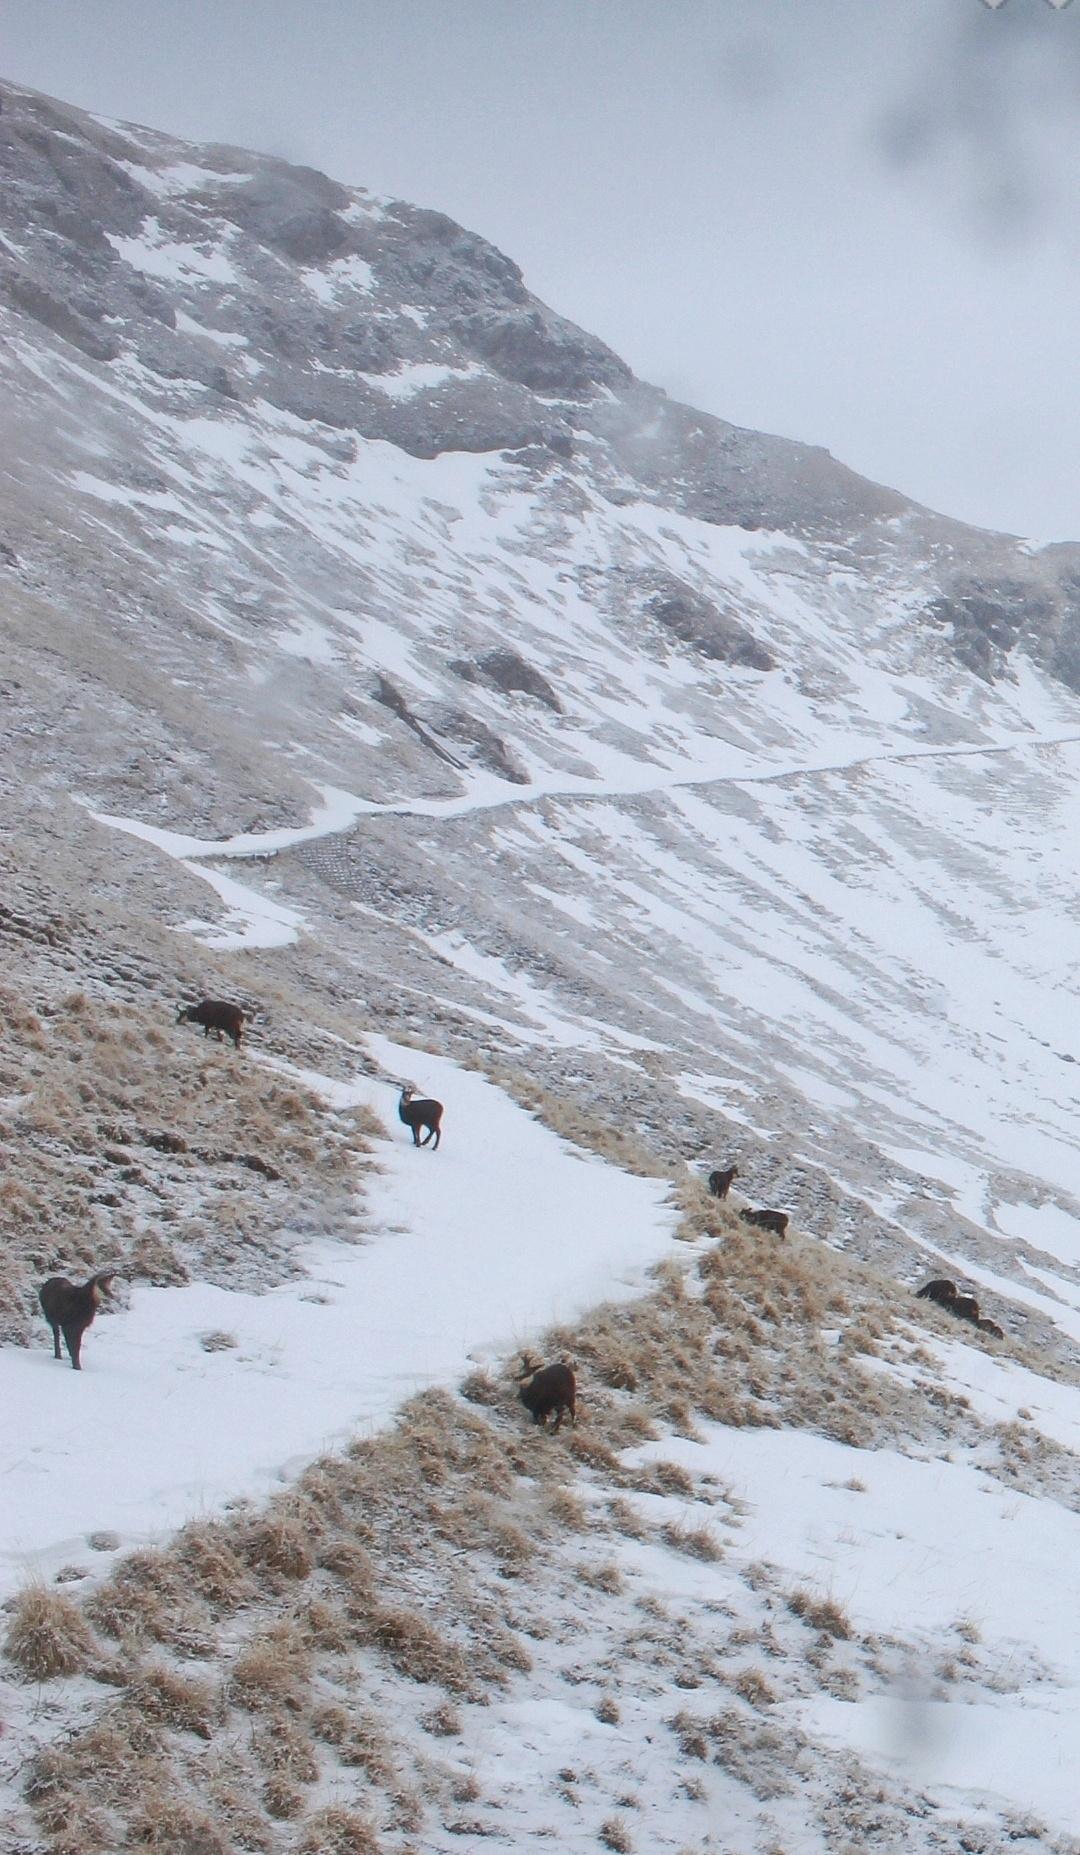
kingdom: Animalia
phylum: Chordata
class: Mammalia
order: Artiodactyla
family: Bovidae
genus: Rupicapra
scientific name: Rupicapra rupicapra
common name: Chamois
